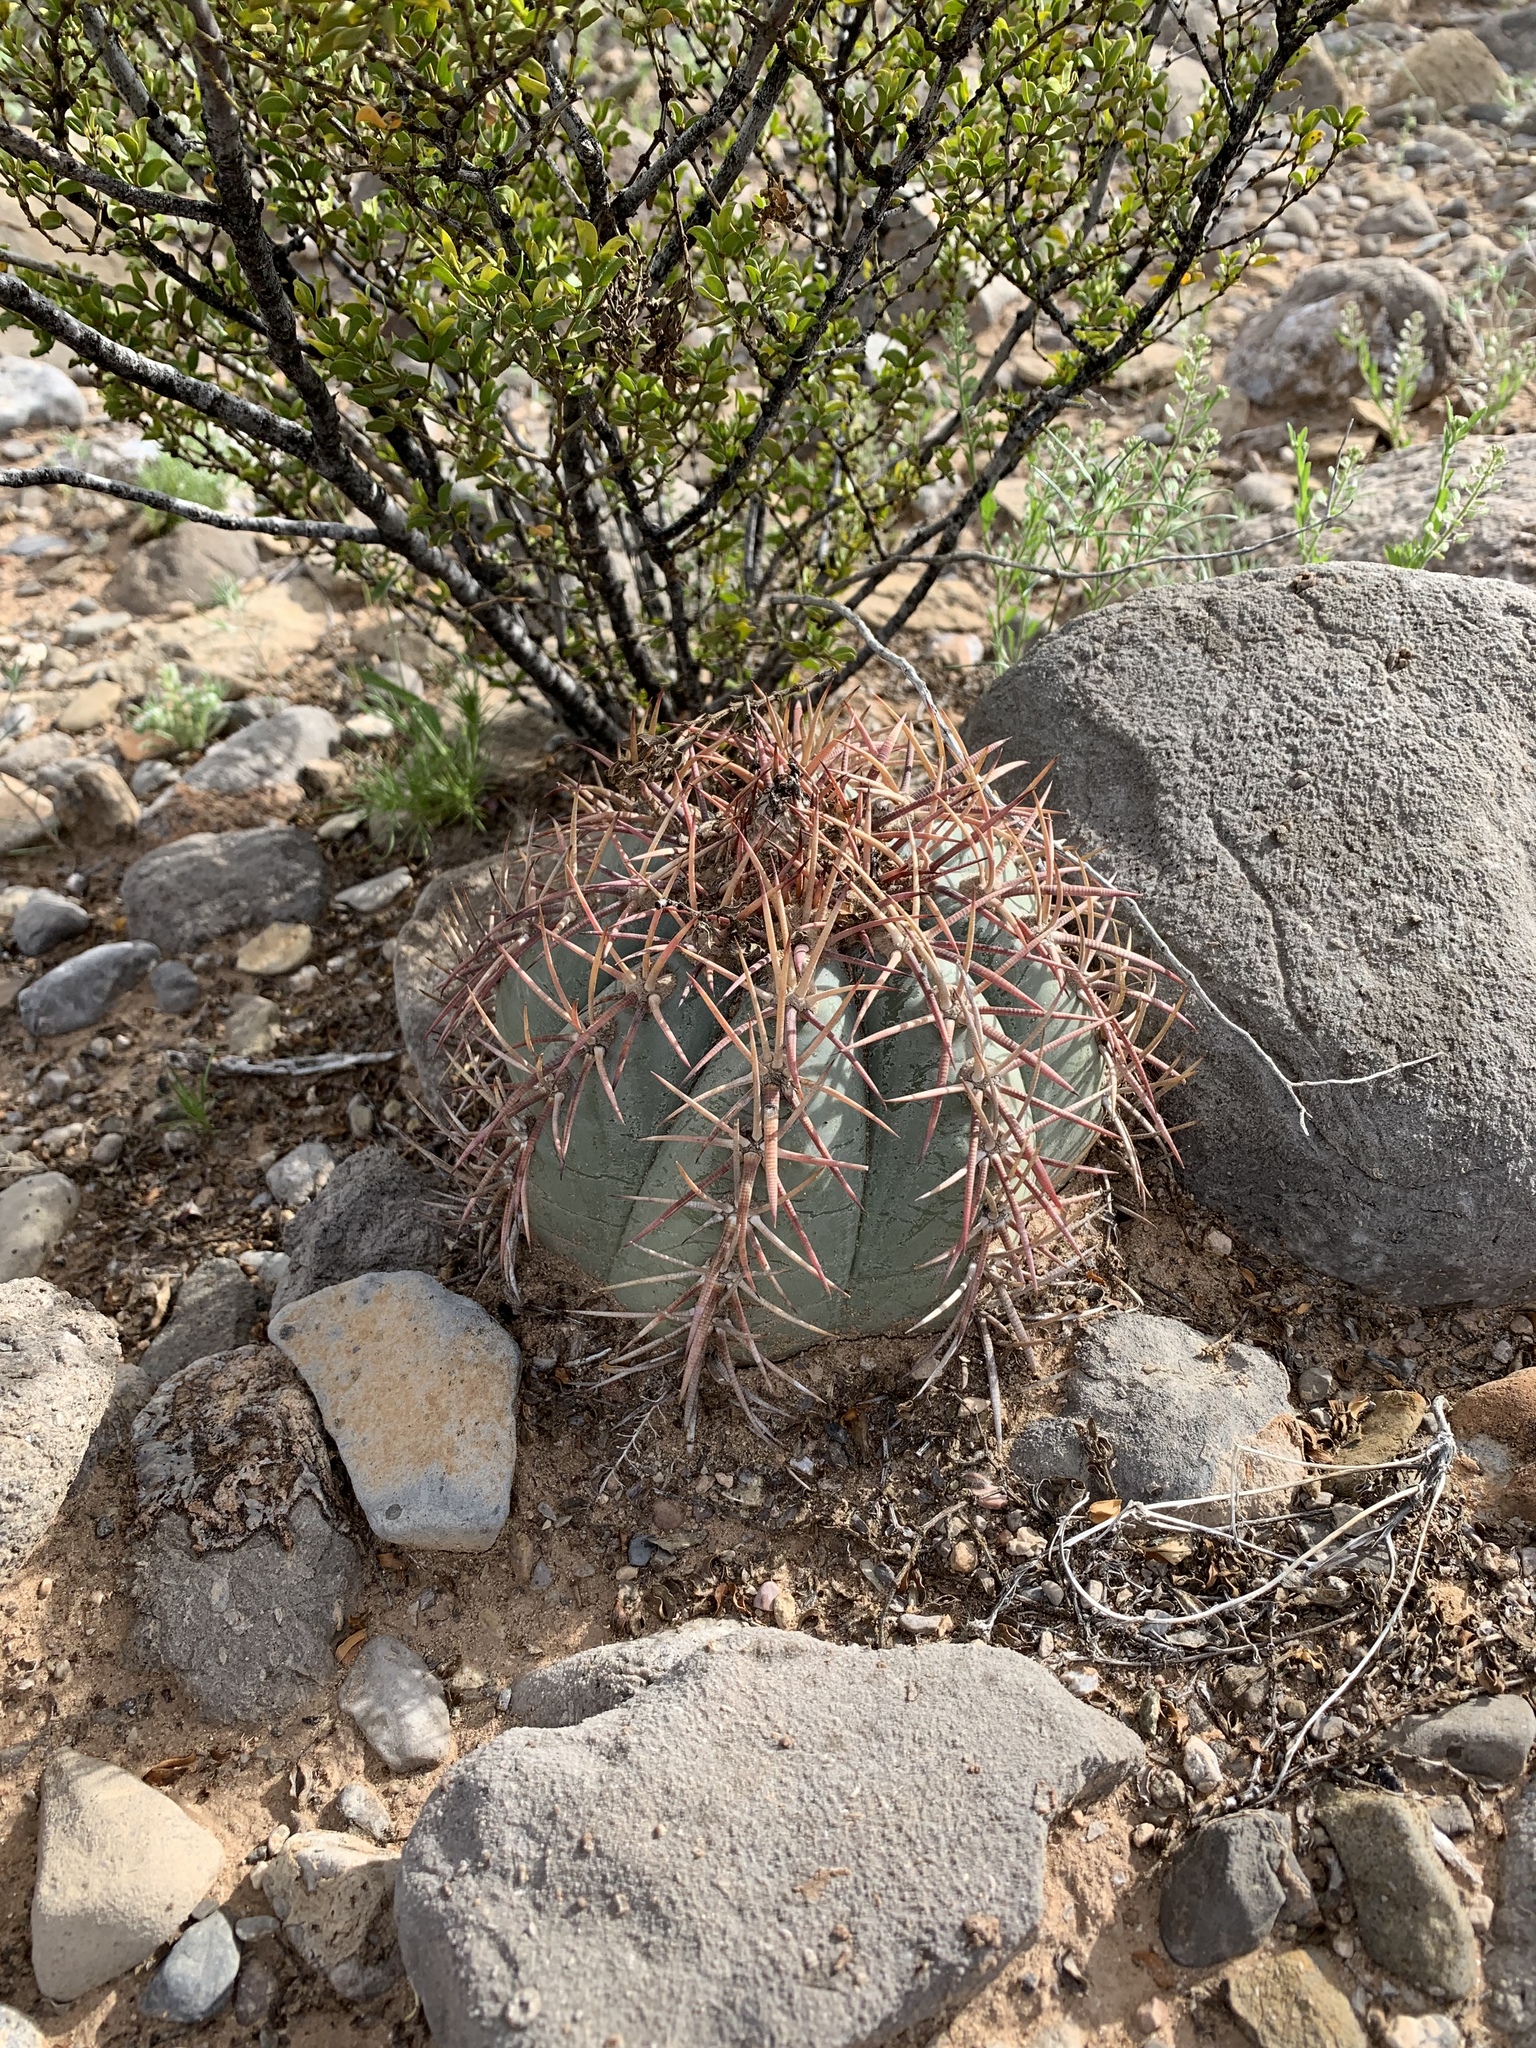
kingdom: Plantae
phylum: Tracheophyta
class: Magnoliopsida
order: Caryophyllales
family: Cactaceae
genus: Echinocactus
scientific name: Echinocactus horizonthalonius
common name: Devilshead
